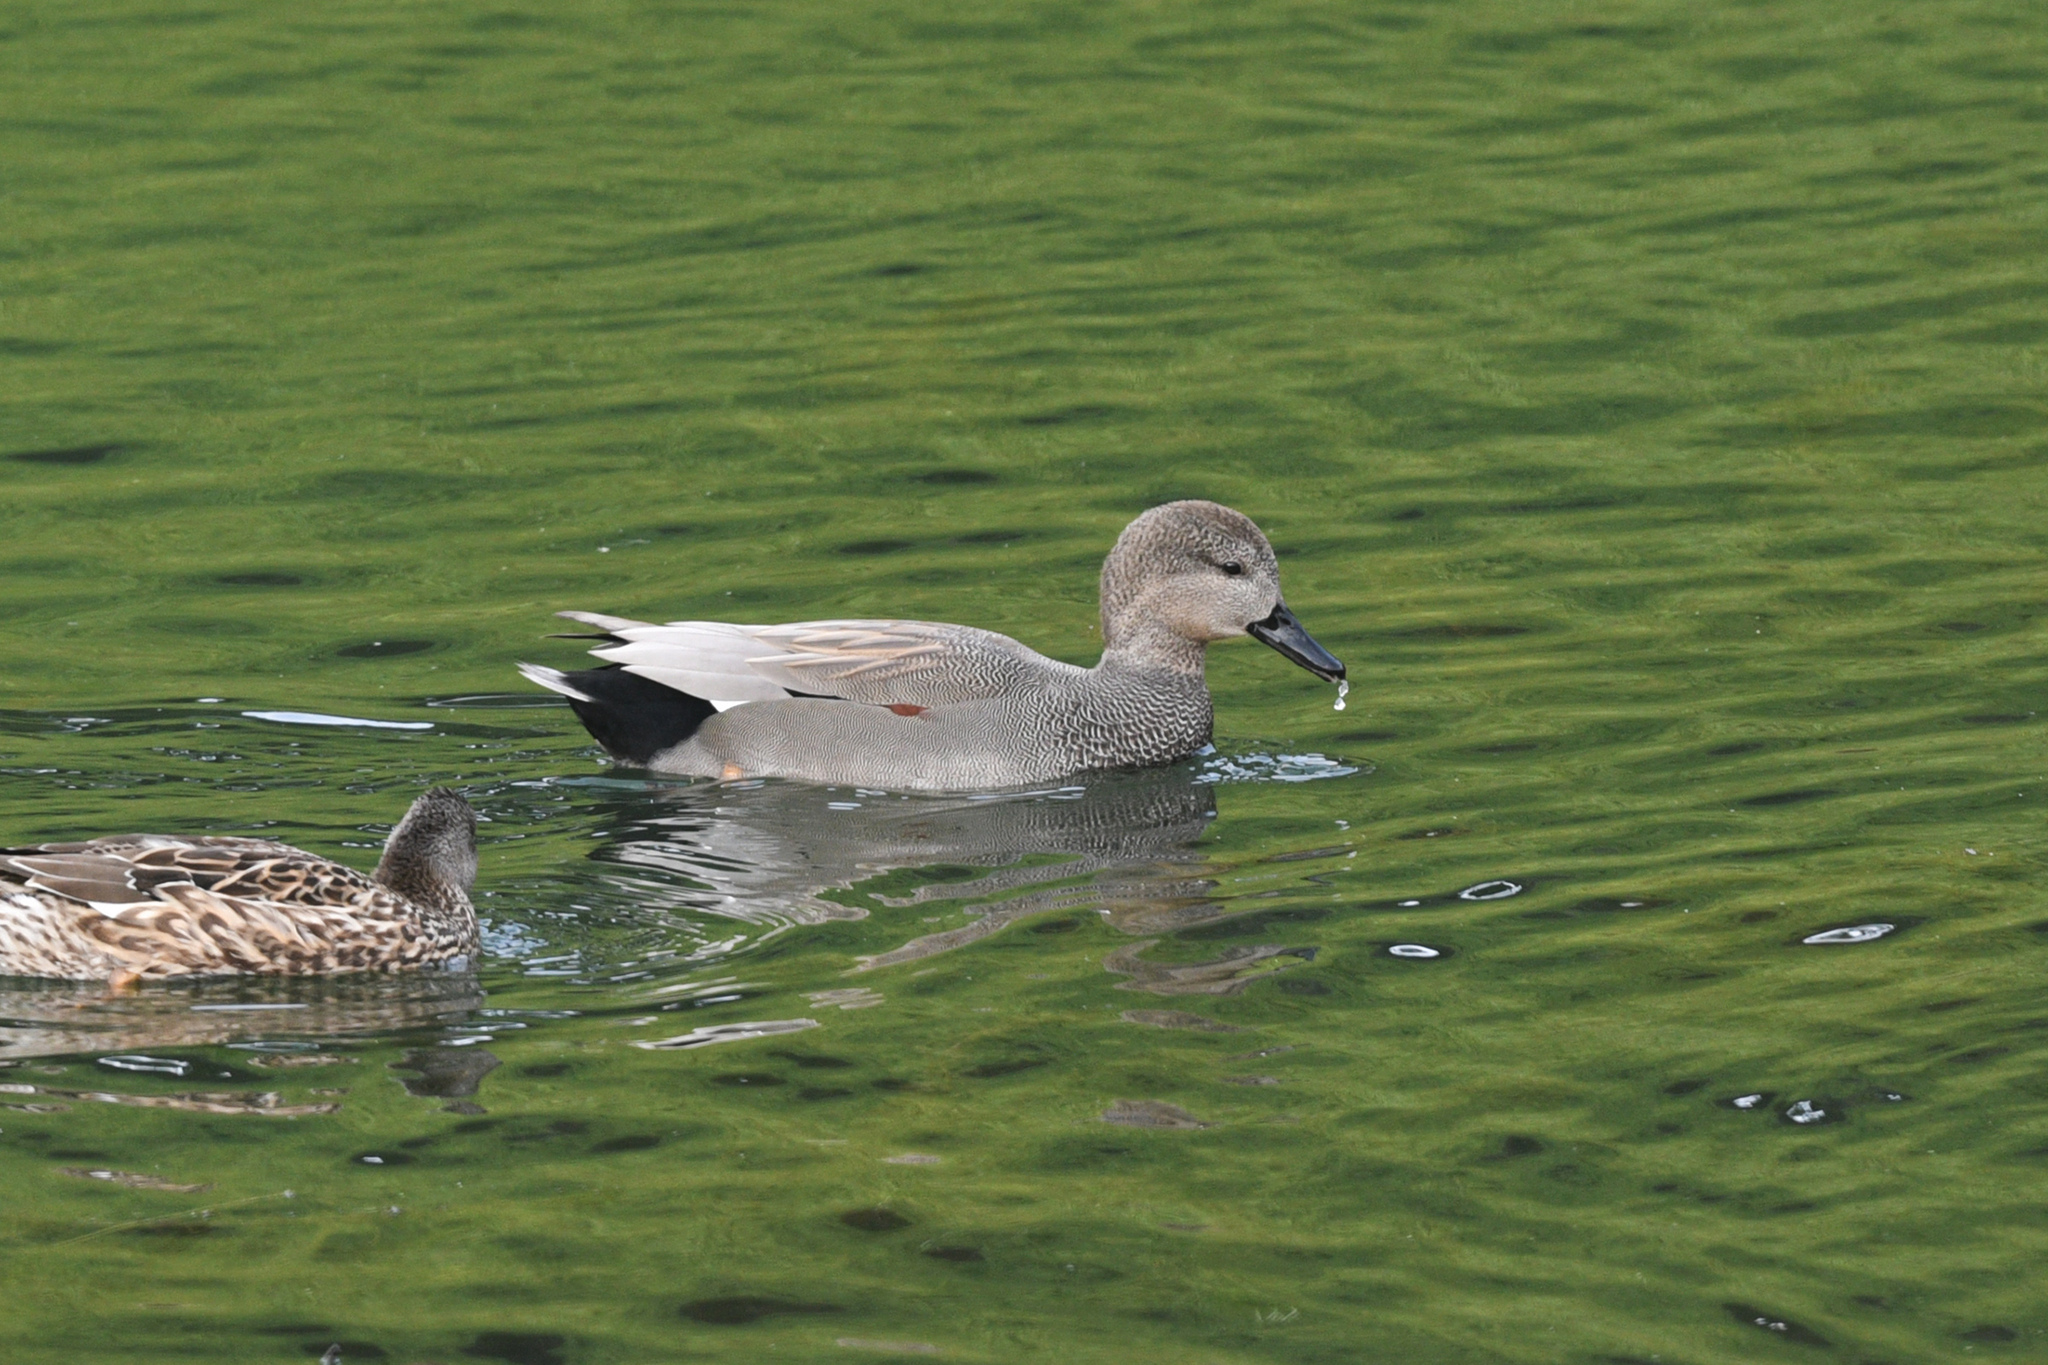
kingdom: Animalia
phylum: Chordata
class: Aves
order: Anseriformes
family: Anatidae
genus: Mareca
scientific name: Mareca strepera
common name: Gadwall
